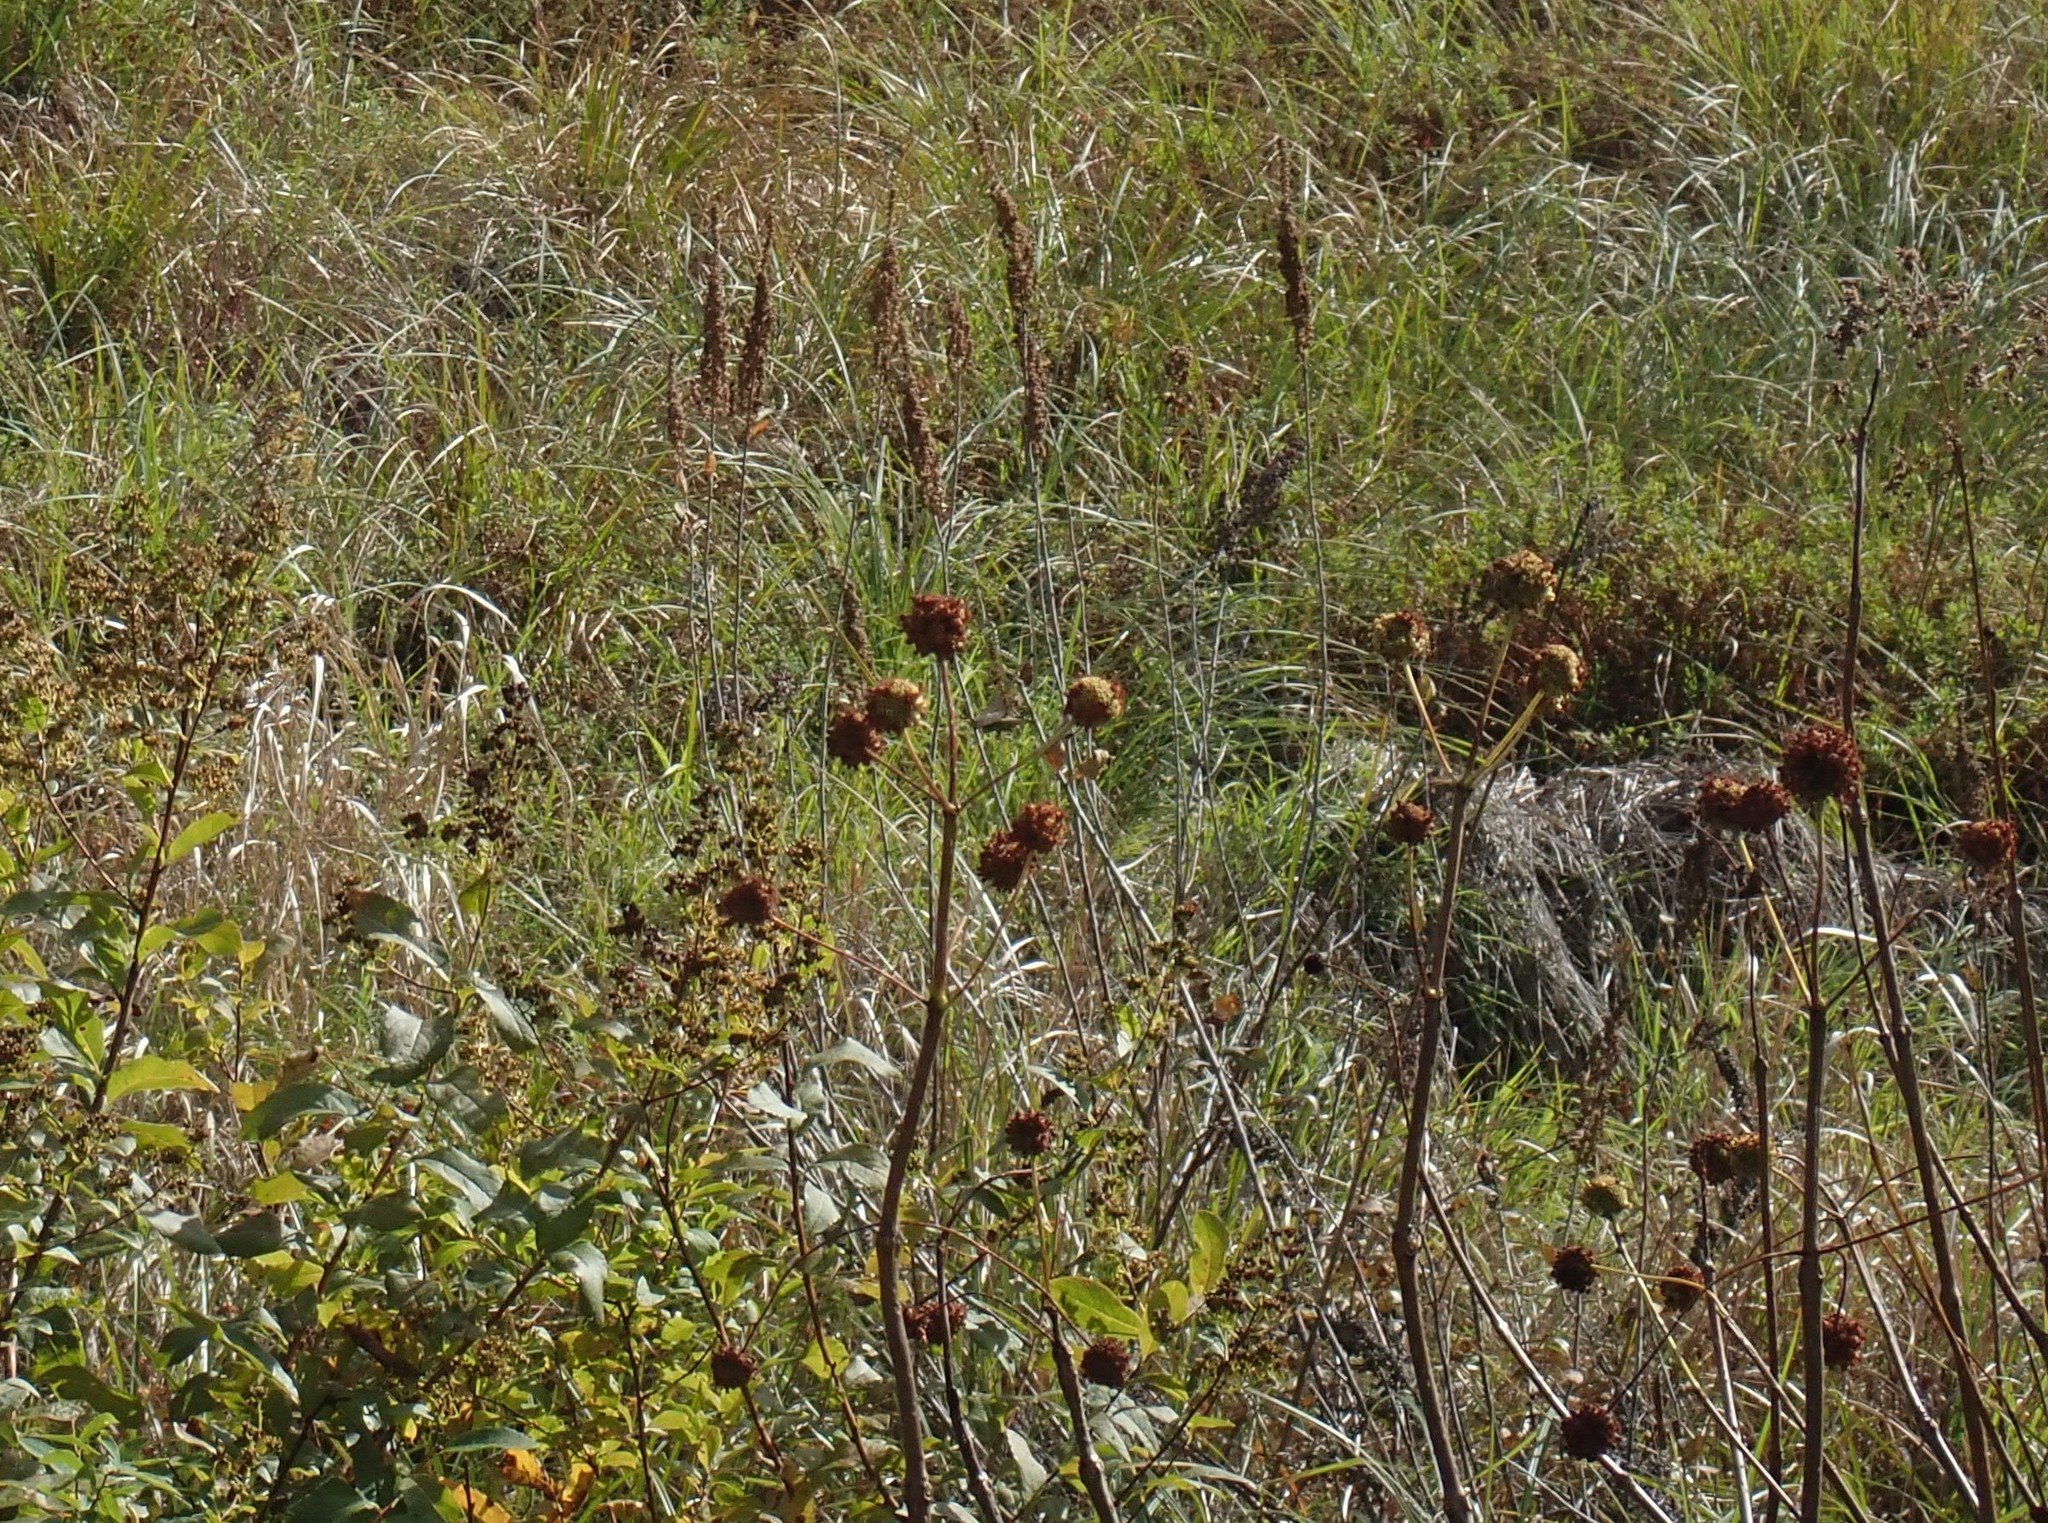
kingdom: Plantae
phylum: Tracheophyta
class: Magnoliopsida
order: Gentianales
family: Rubiaceae
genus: Cephalanthus
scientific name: Cephalanthus occidentalis
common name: Button-willow
